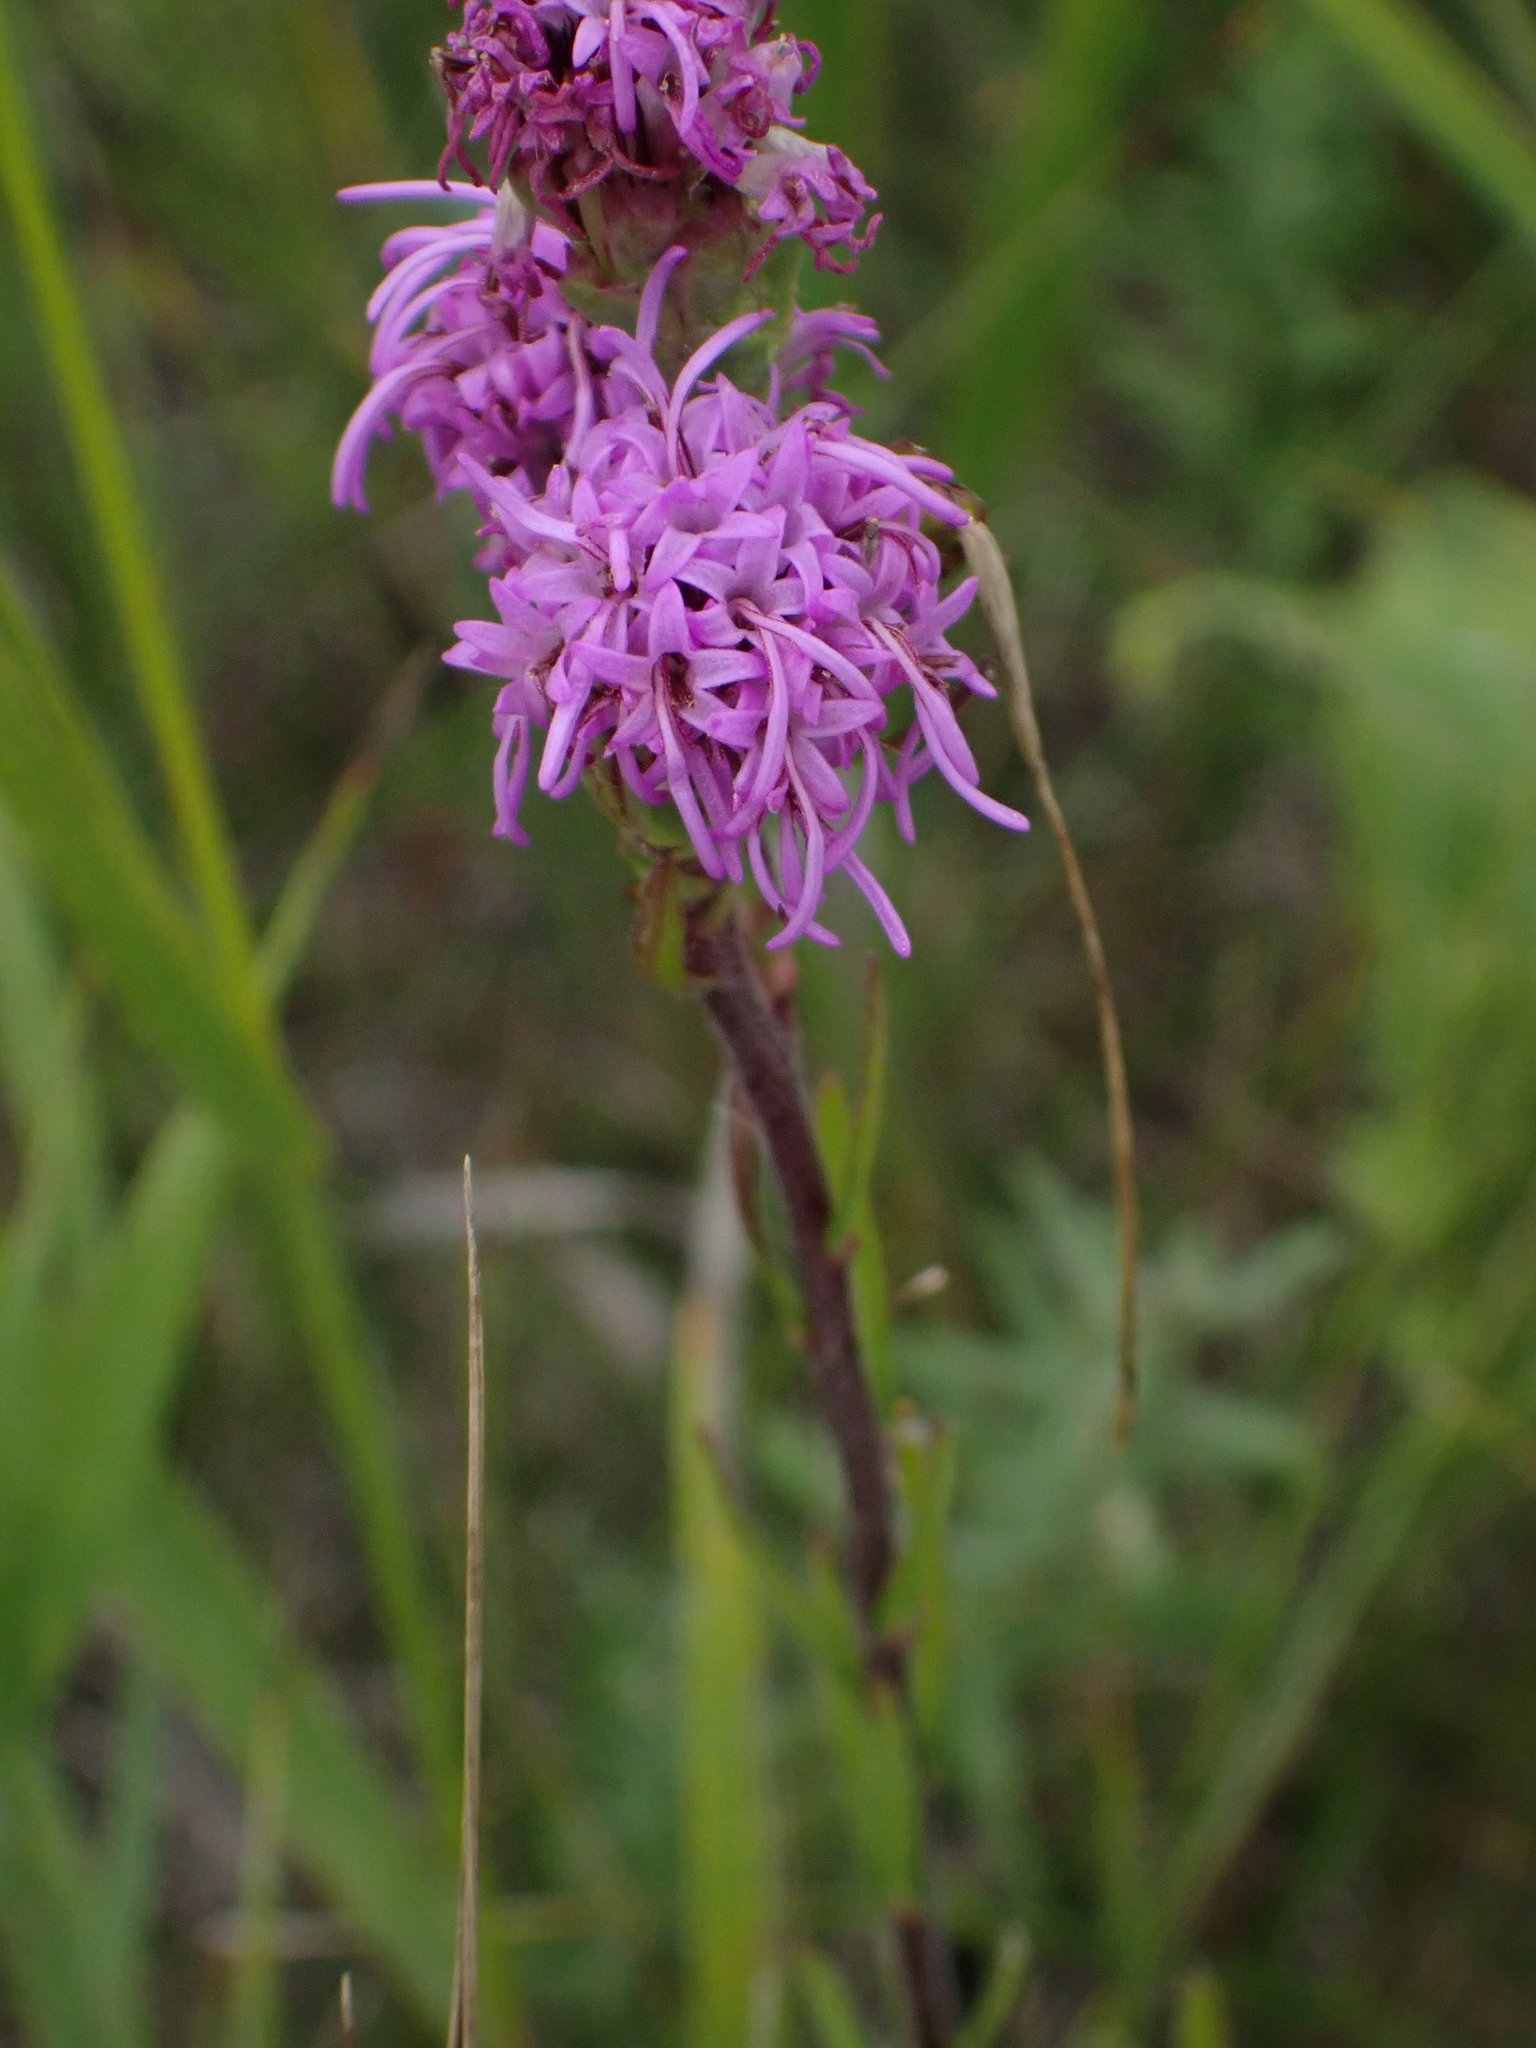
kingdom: Plantae
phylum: Tracheophyta
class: Magnoliopsida
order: Asterales
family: Asteraceae
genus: Liatris
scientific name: Liatris ligulistylis
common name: Northern plains gayfeather
